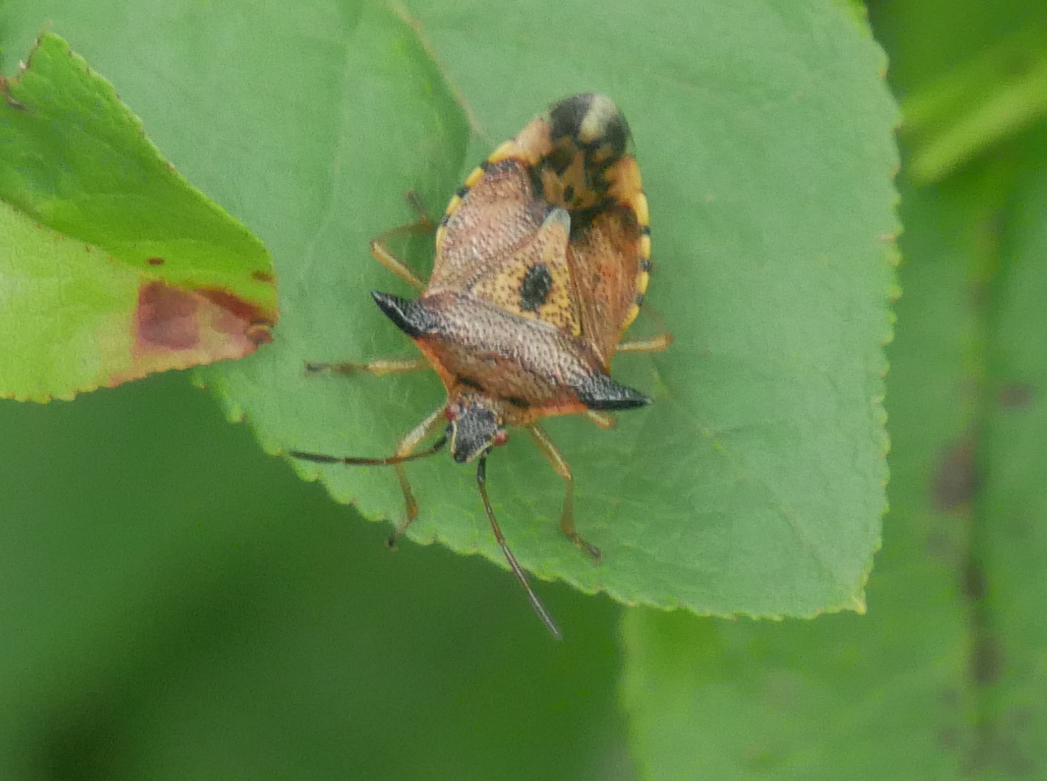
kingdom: Animalia
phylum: Arthropoda
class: Insecta
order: Hemiptera
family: Acanthosomatidae
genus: Elasmucha
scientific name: Elasmucha ferrugata
